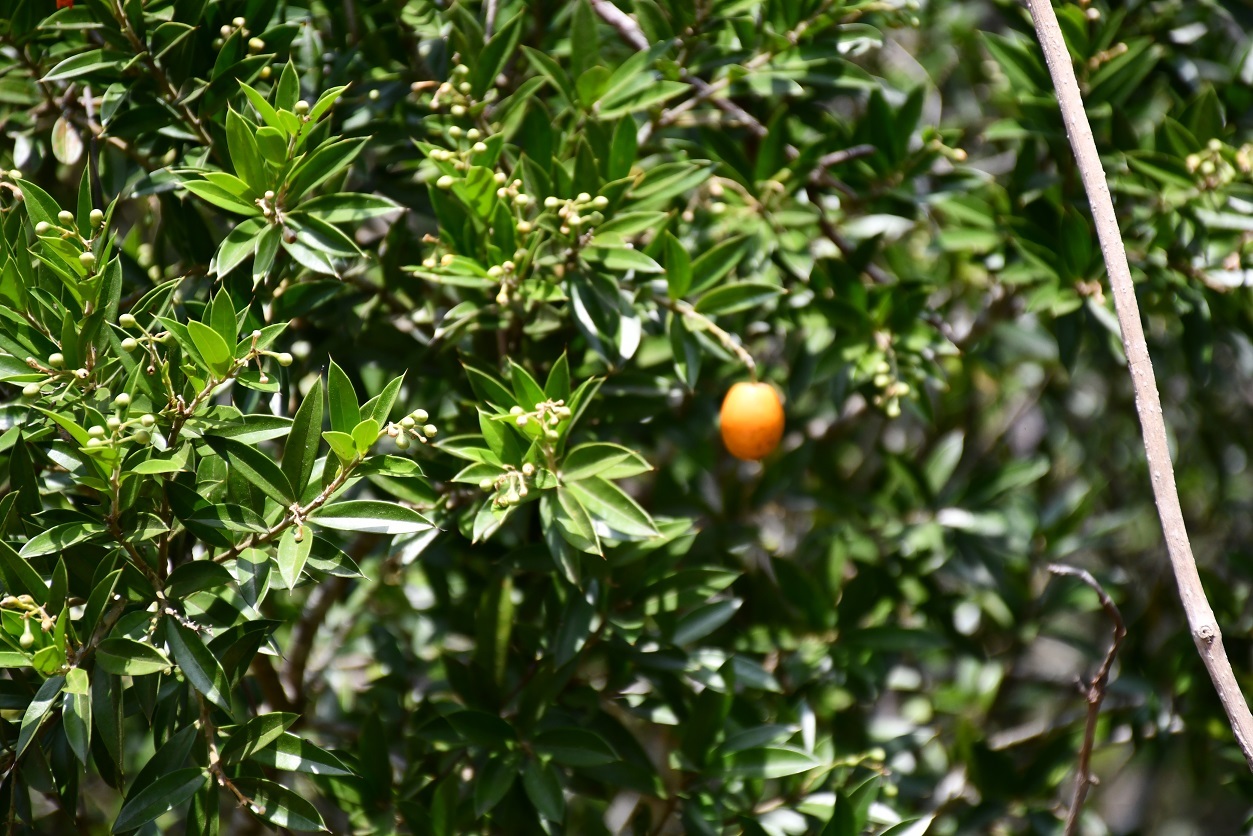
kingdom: Plantae
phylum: Tracheophyta
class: Magnoliopsida
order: Ericales
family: Primulaceae
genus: Bonellia
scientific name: Bonellia macrocarpa
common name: Primrose
